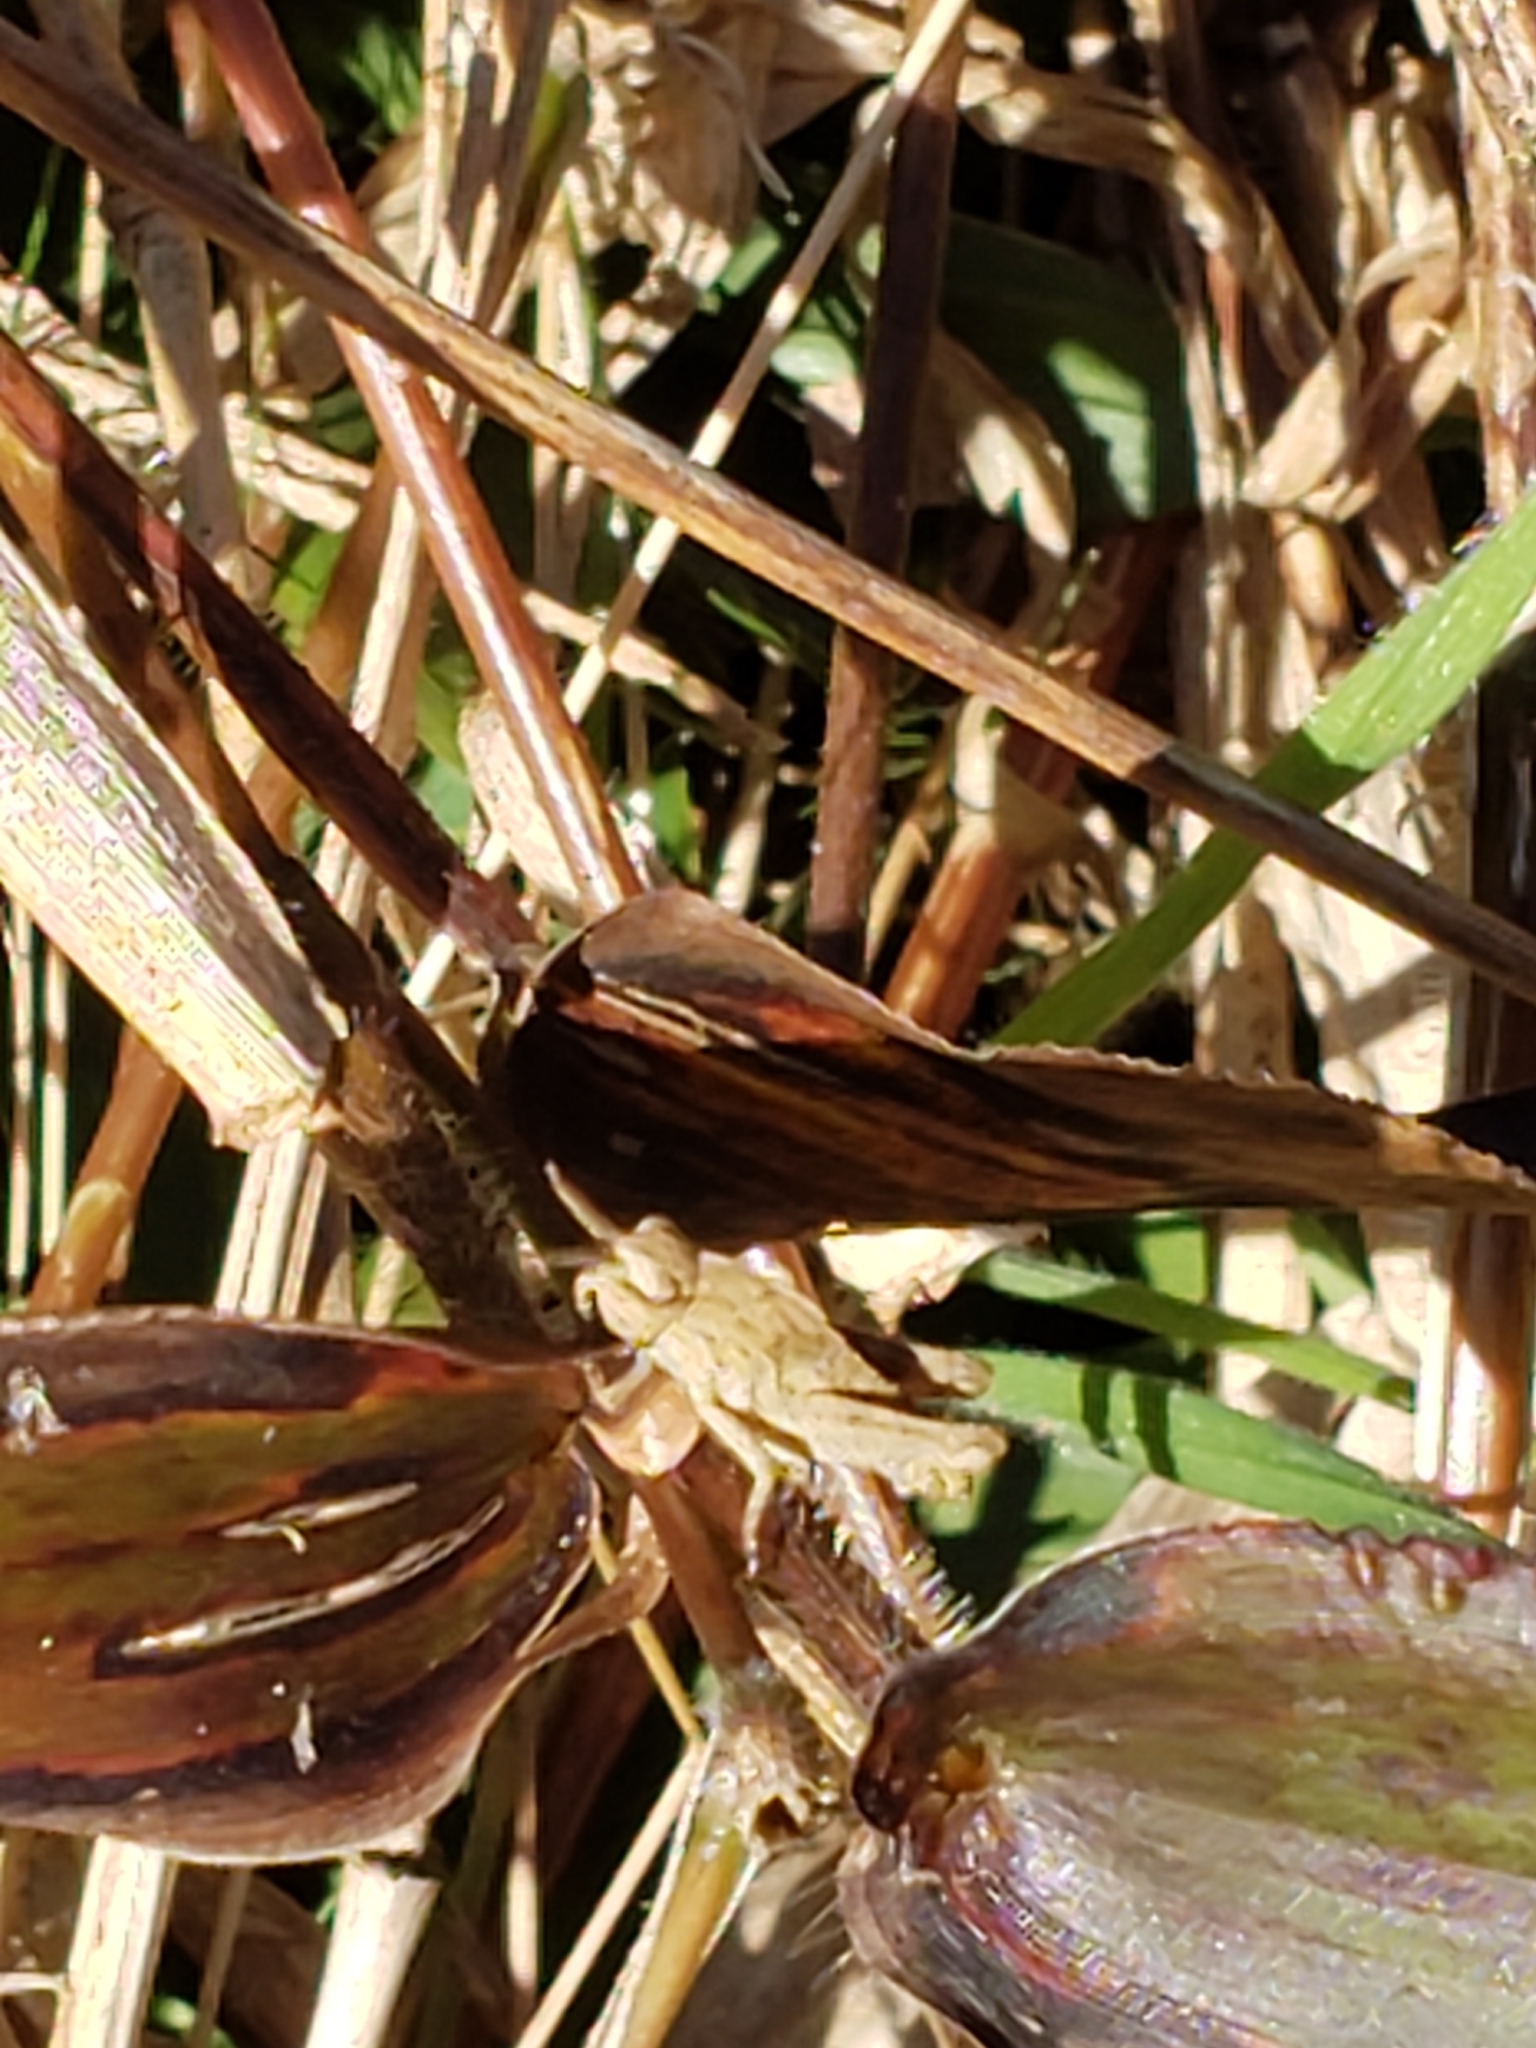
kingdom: Animalia
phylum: Arthropoda
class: Insecta
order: Orthoptera
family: Acrididae
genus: Chortophaga
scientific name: Chortophaga viridifasciata
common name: Green-striped grasshopper
